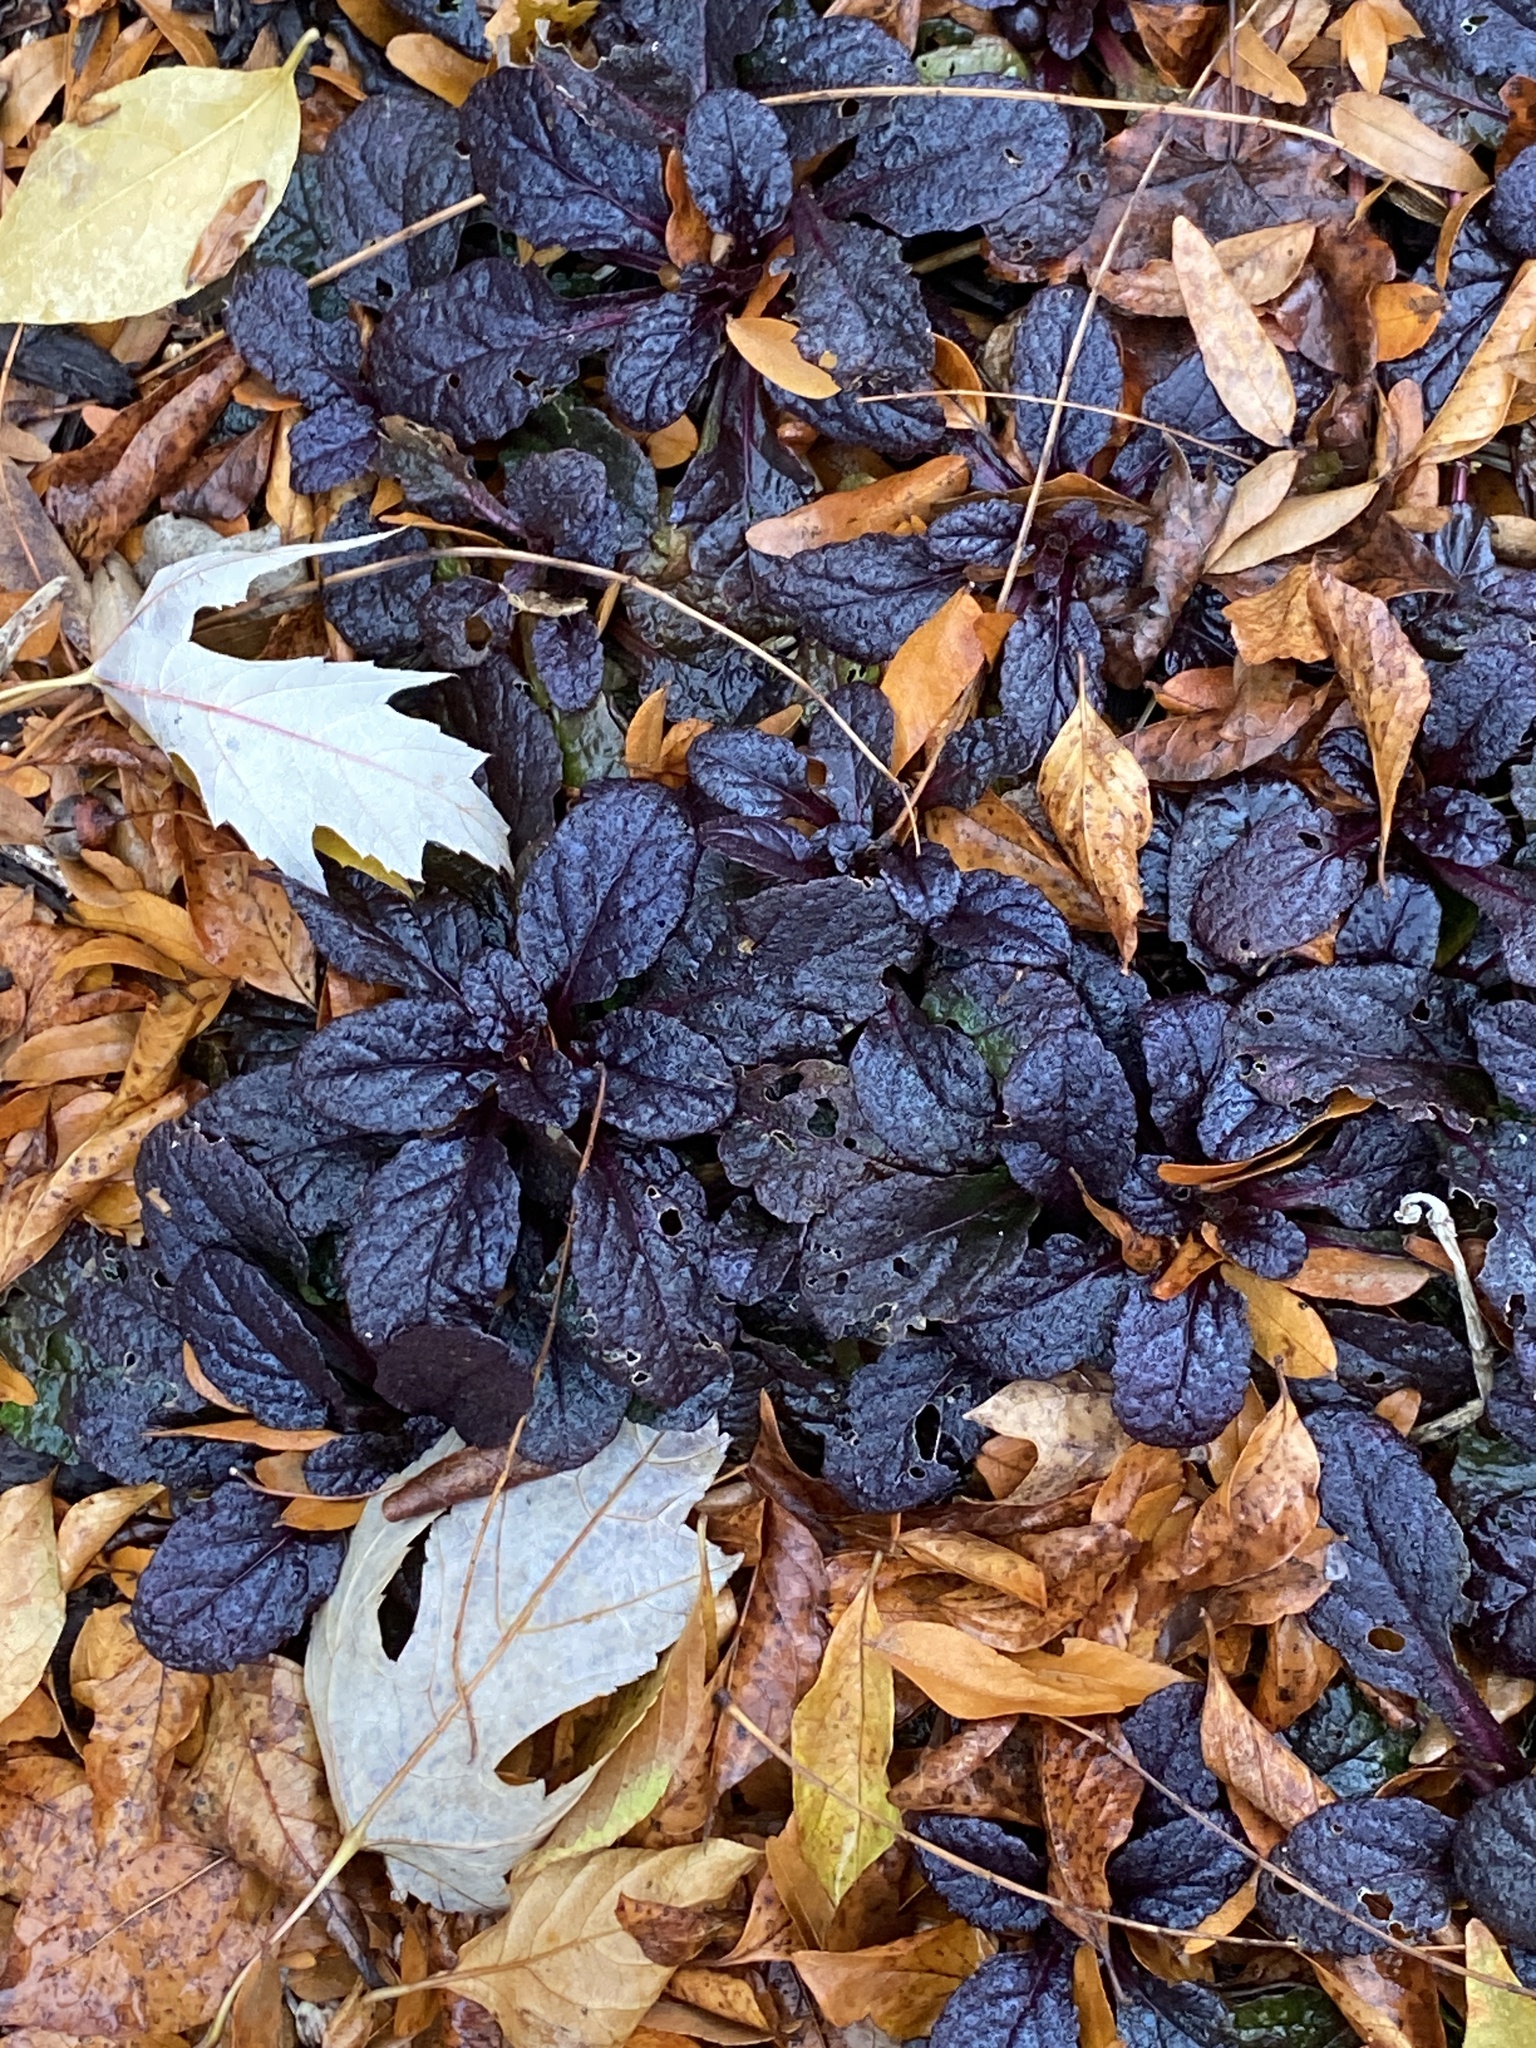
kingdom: Plantae
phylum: Tracheophyta
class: Magnoliopsida
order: Lamiales
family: Lamiaceae
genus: Ajuga
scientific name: Ajuga reptans
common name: Bugle
